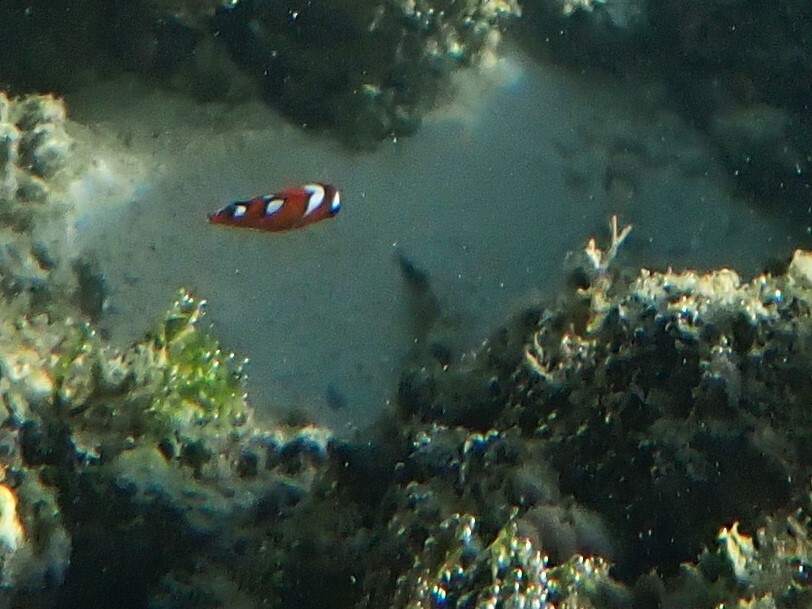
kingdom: Animalia
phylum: Chordata
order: Perciformes
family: Labridae
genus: Coris
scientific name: Coris gaimard
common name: Yellowtail coris
